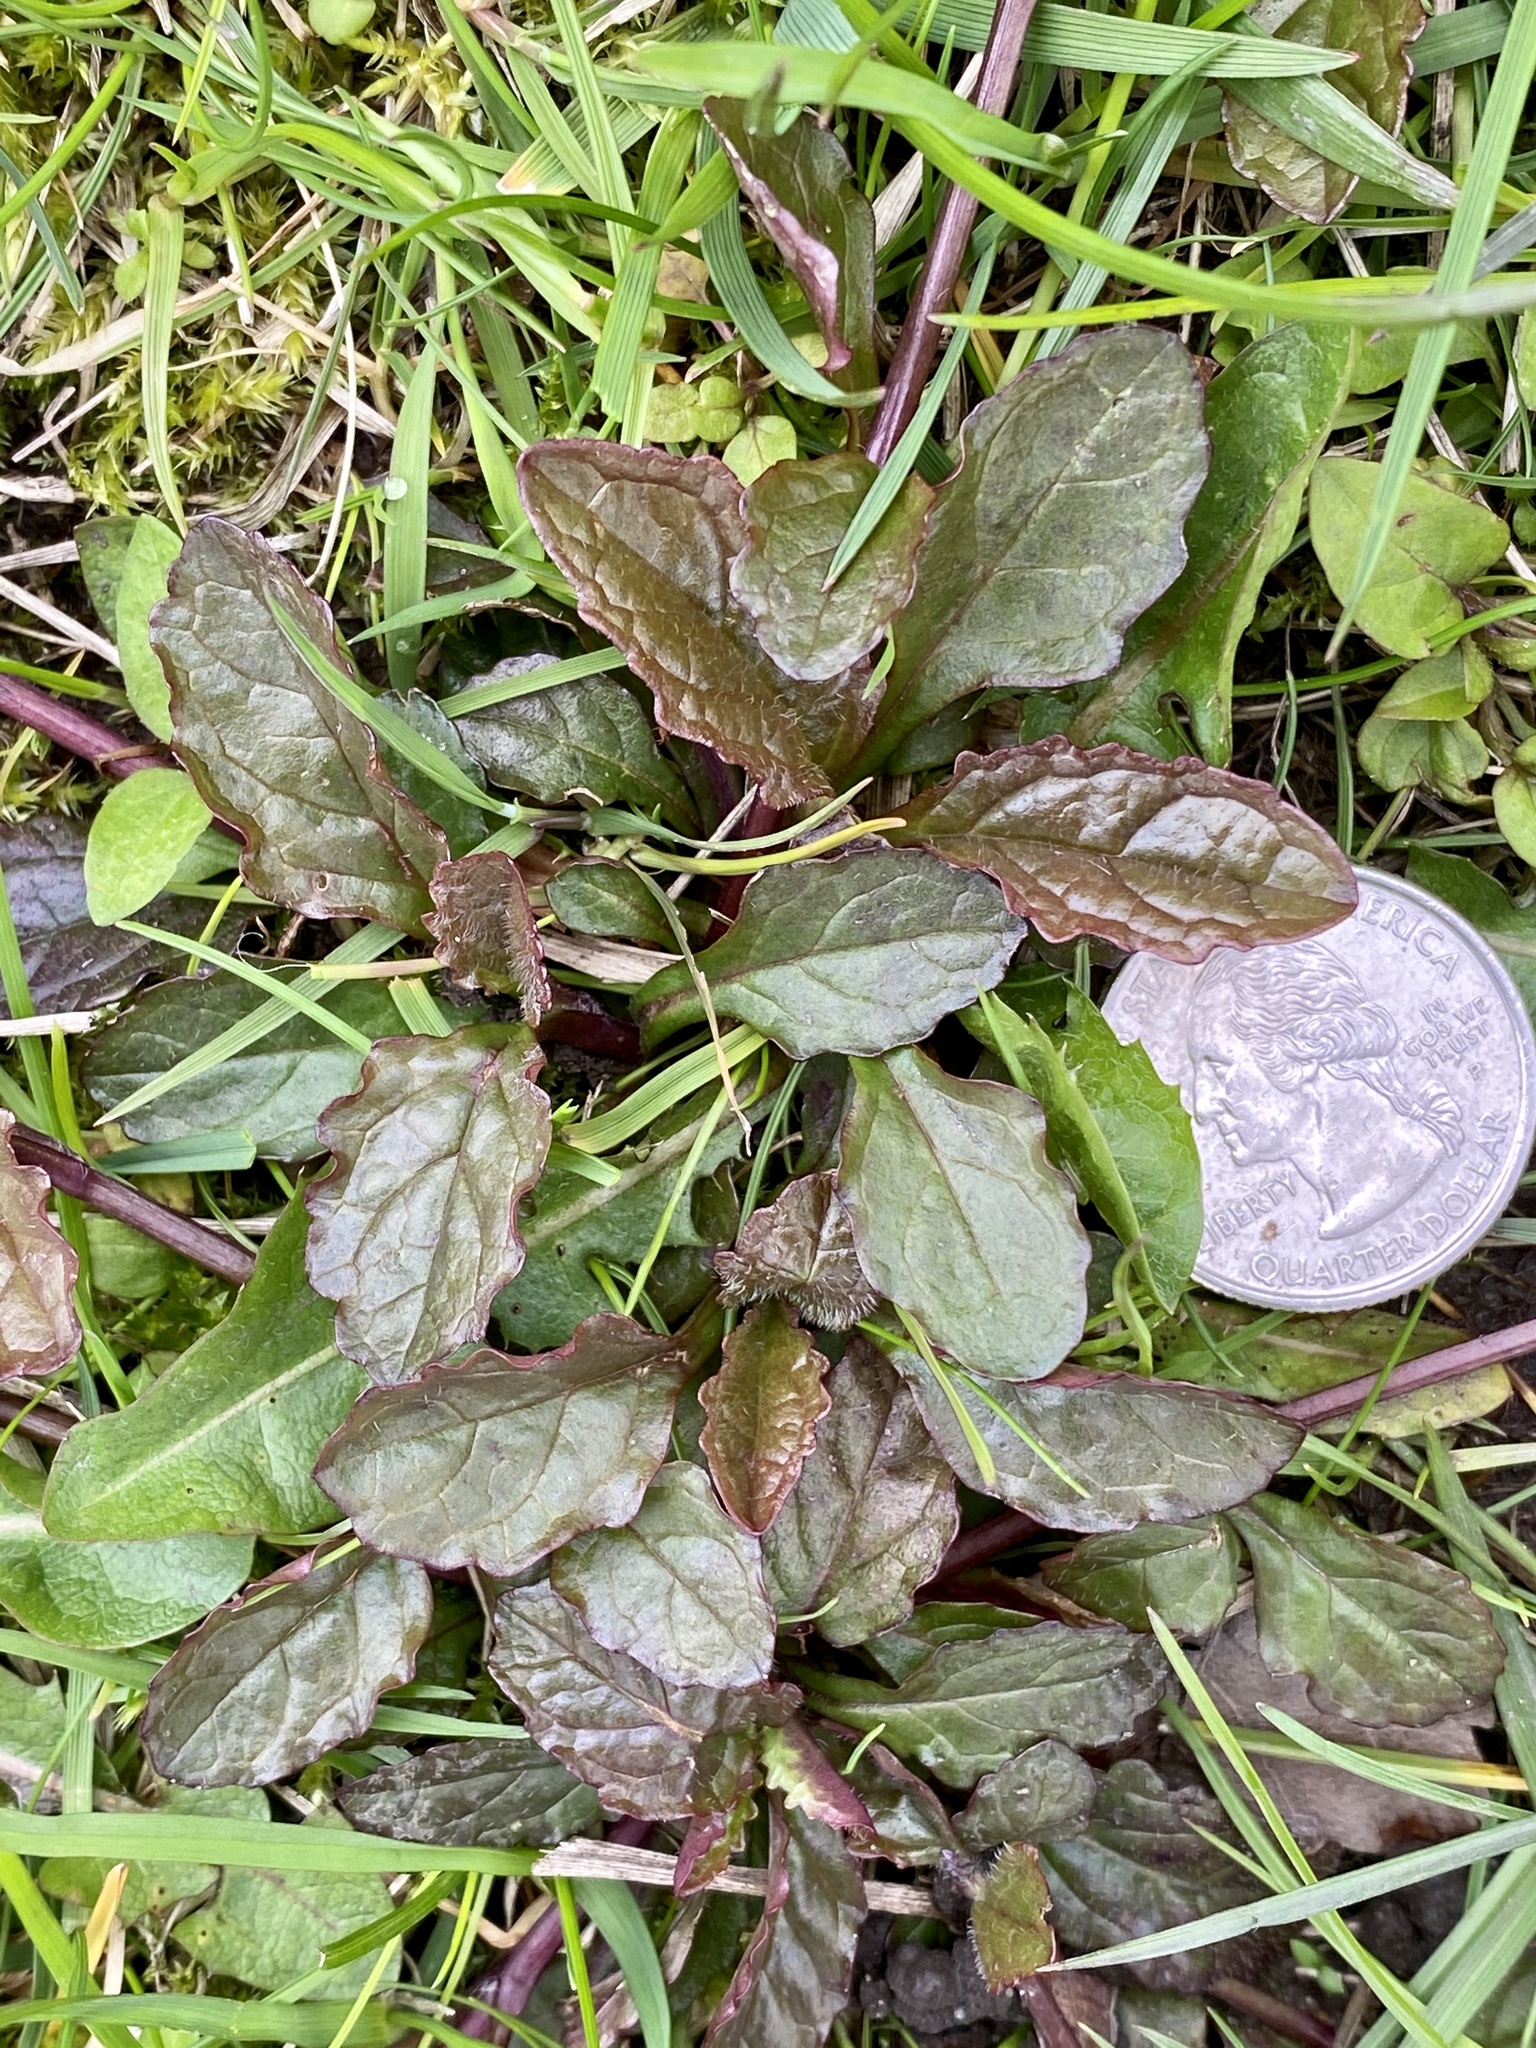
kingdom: Plantae
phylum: Tracheophyta
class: Magnoliopsida
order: Lamiales
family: Lamiaceae
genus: Ajuga
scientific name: Ajuga reptans
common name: Bugle
